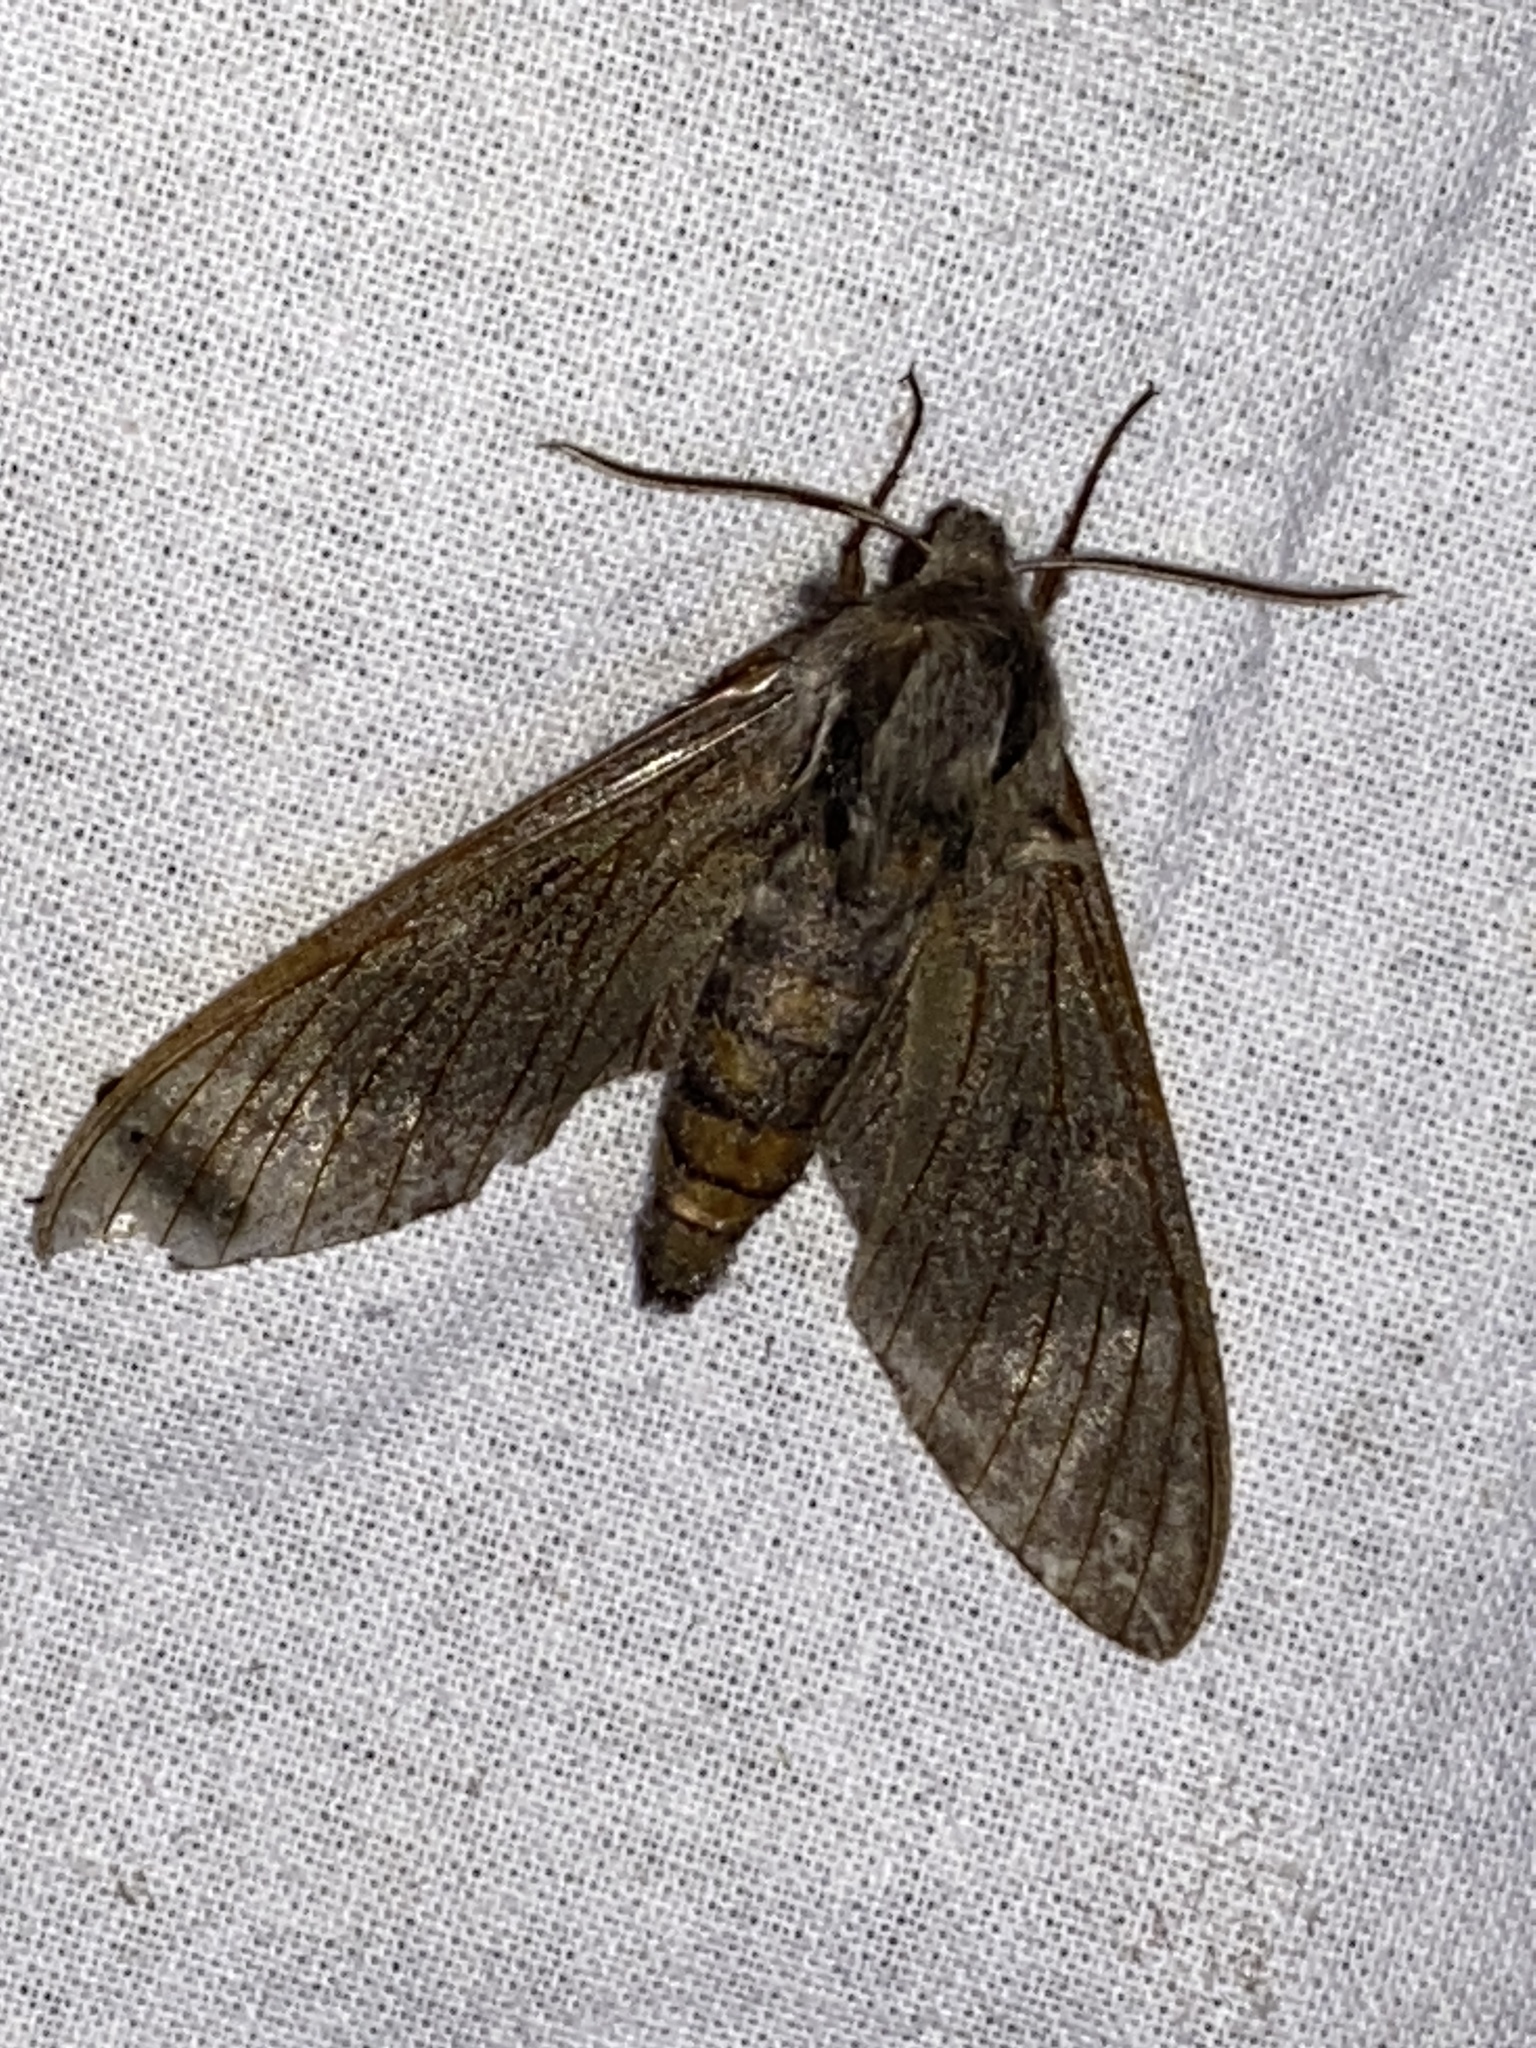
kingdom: Animalia
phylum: Arthropoda
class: Insecta
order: Lepidoptera
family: Sphingidae
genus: Sphinx
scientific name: Sphinx pinastri
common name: Pine hawk-moth
